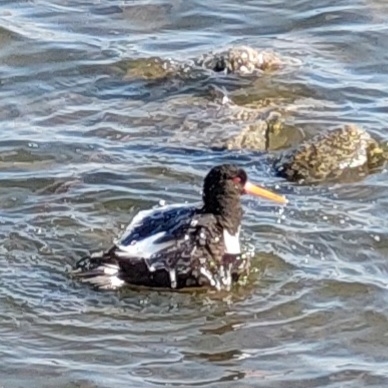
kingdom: Animalia
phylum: Chordata
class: Aves
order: Charadriiformes
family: Haematopodidae
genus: Haematopus
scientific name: Haematopus ostralegus
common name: Eurasian oystercatcher
